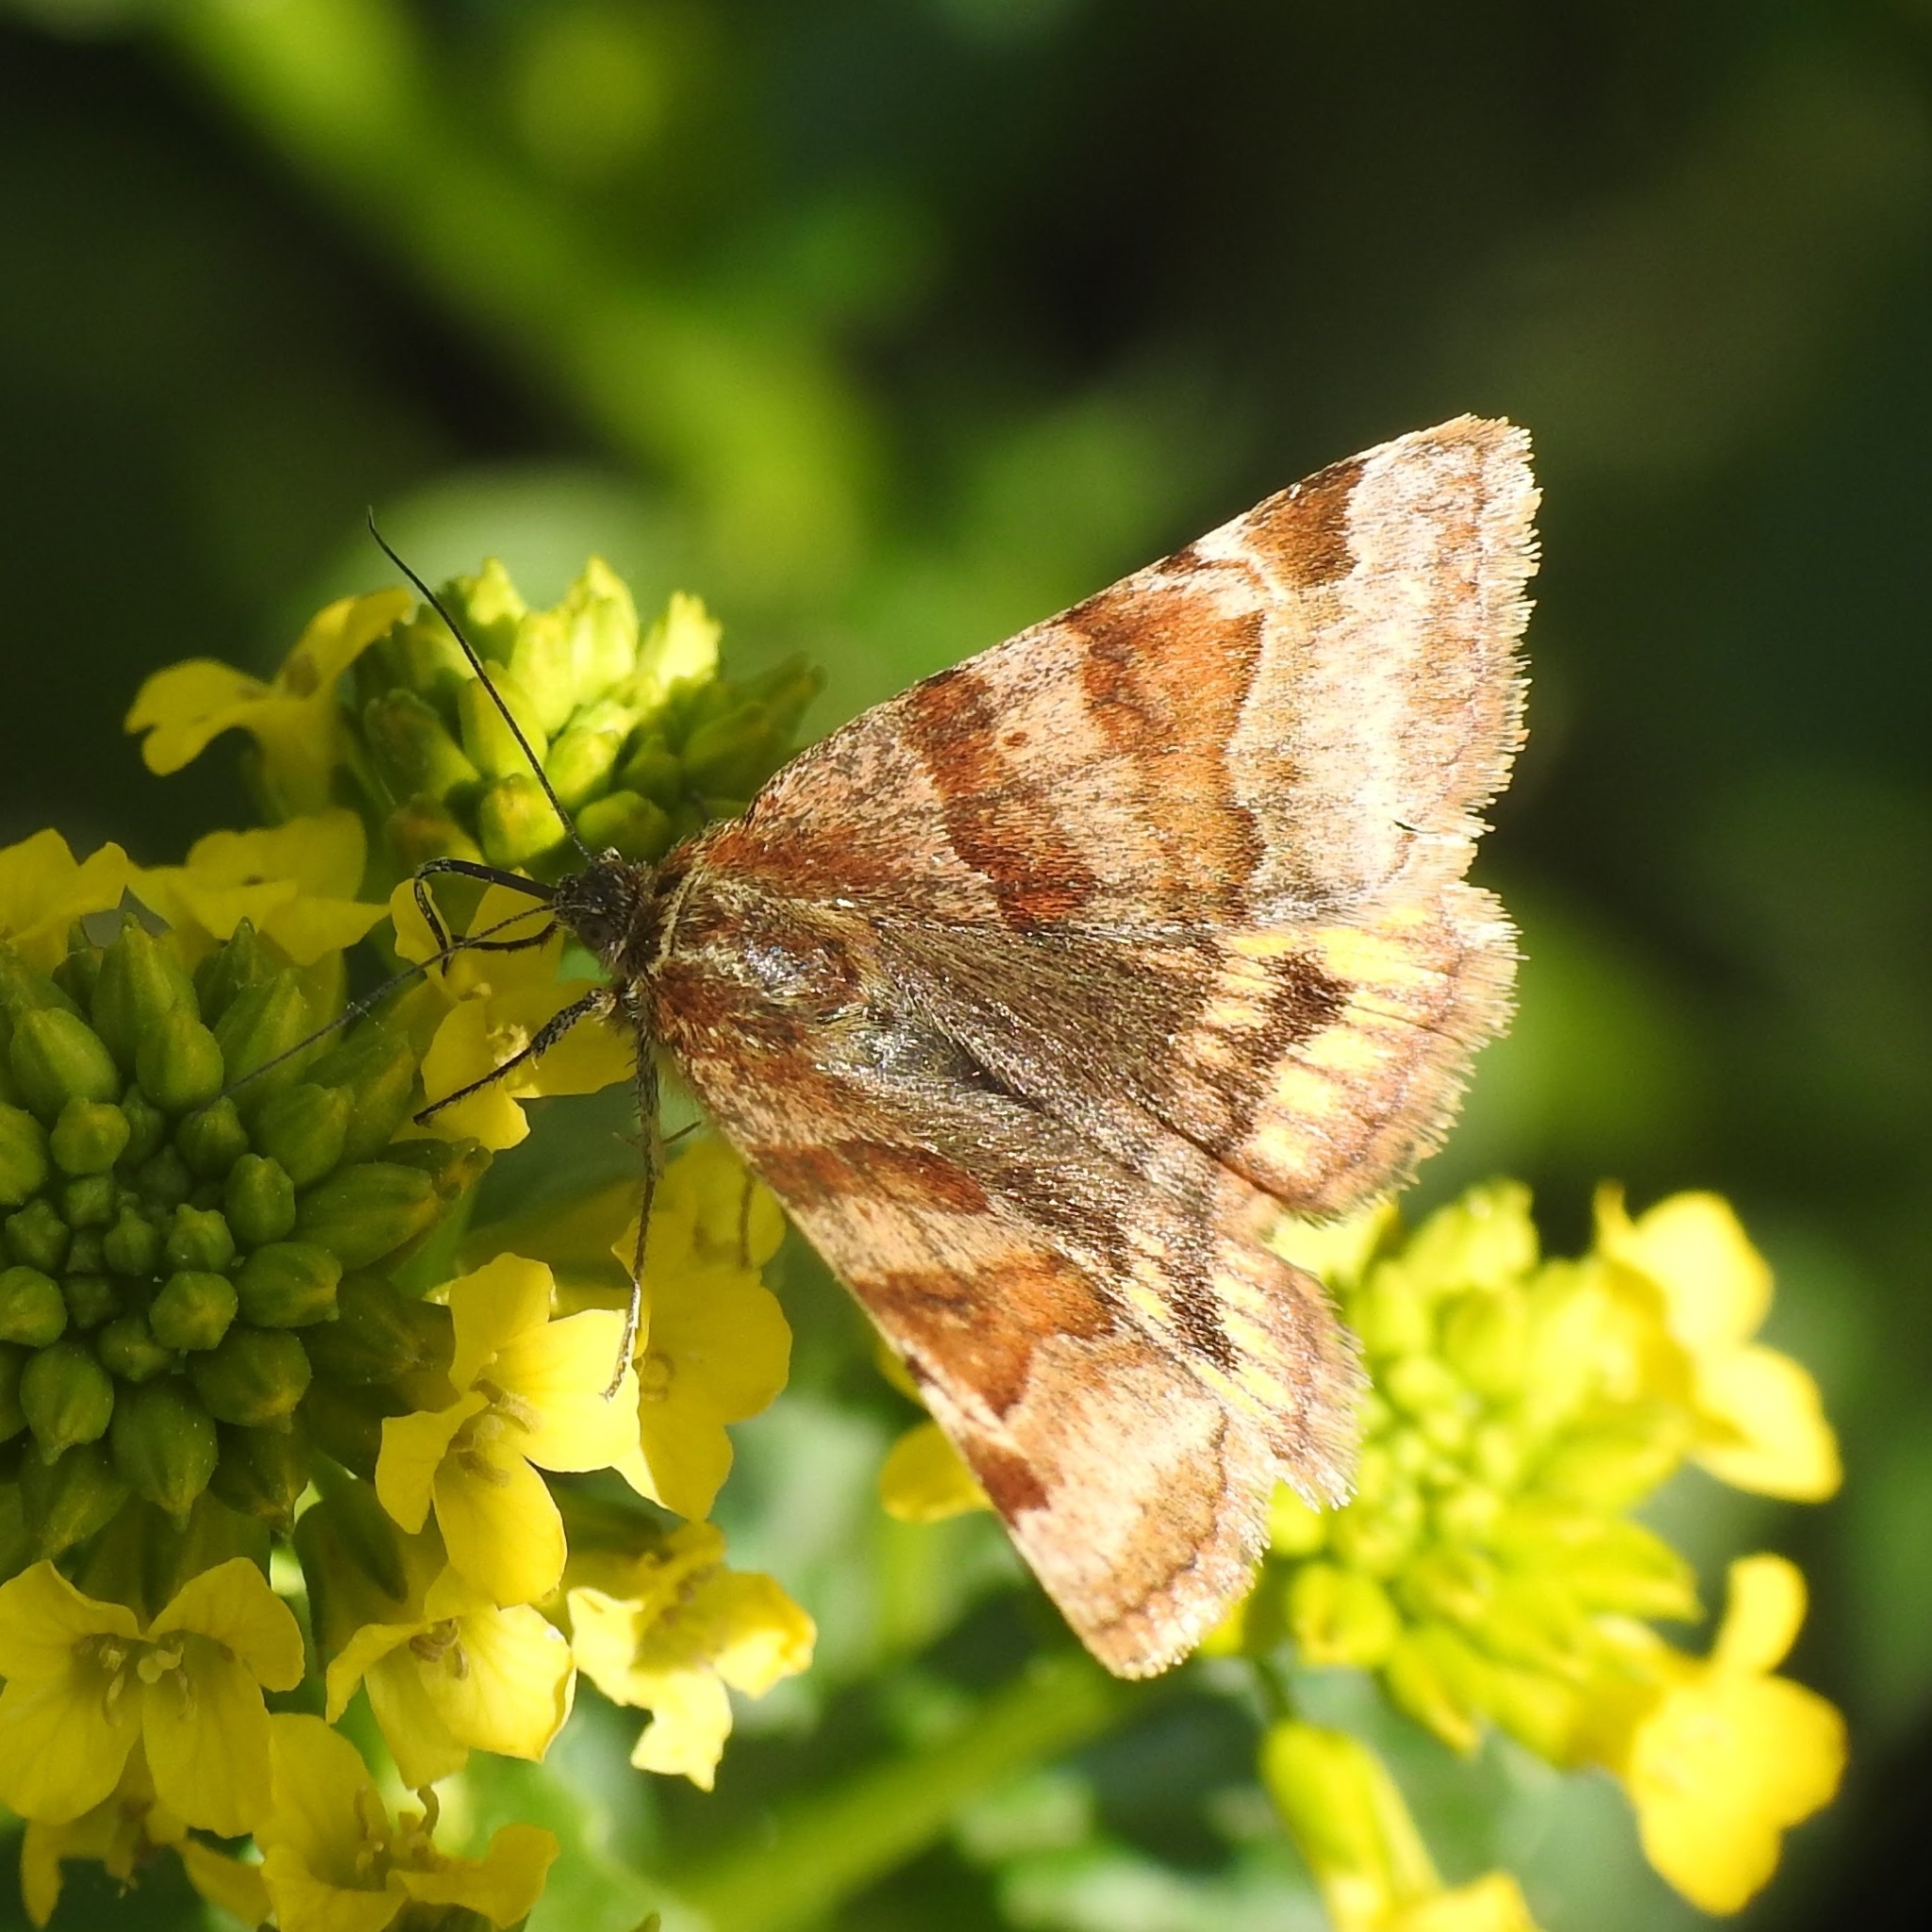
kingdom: Animalia
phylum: Arthropoda
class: Insecta
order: Lepidoptera
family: Erebidae
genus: Euclidia
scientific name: Euclidia glyphica
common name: Burnet companion
